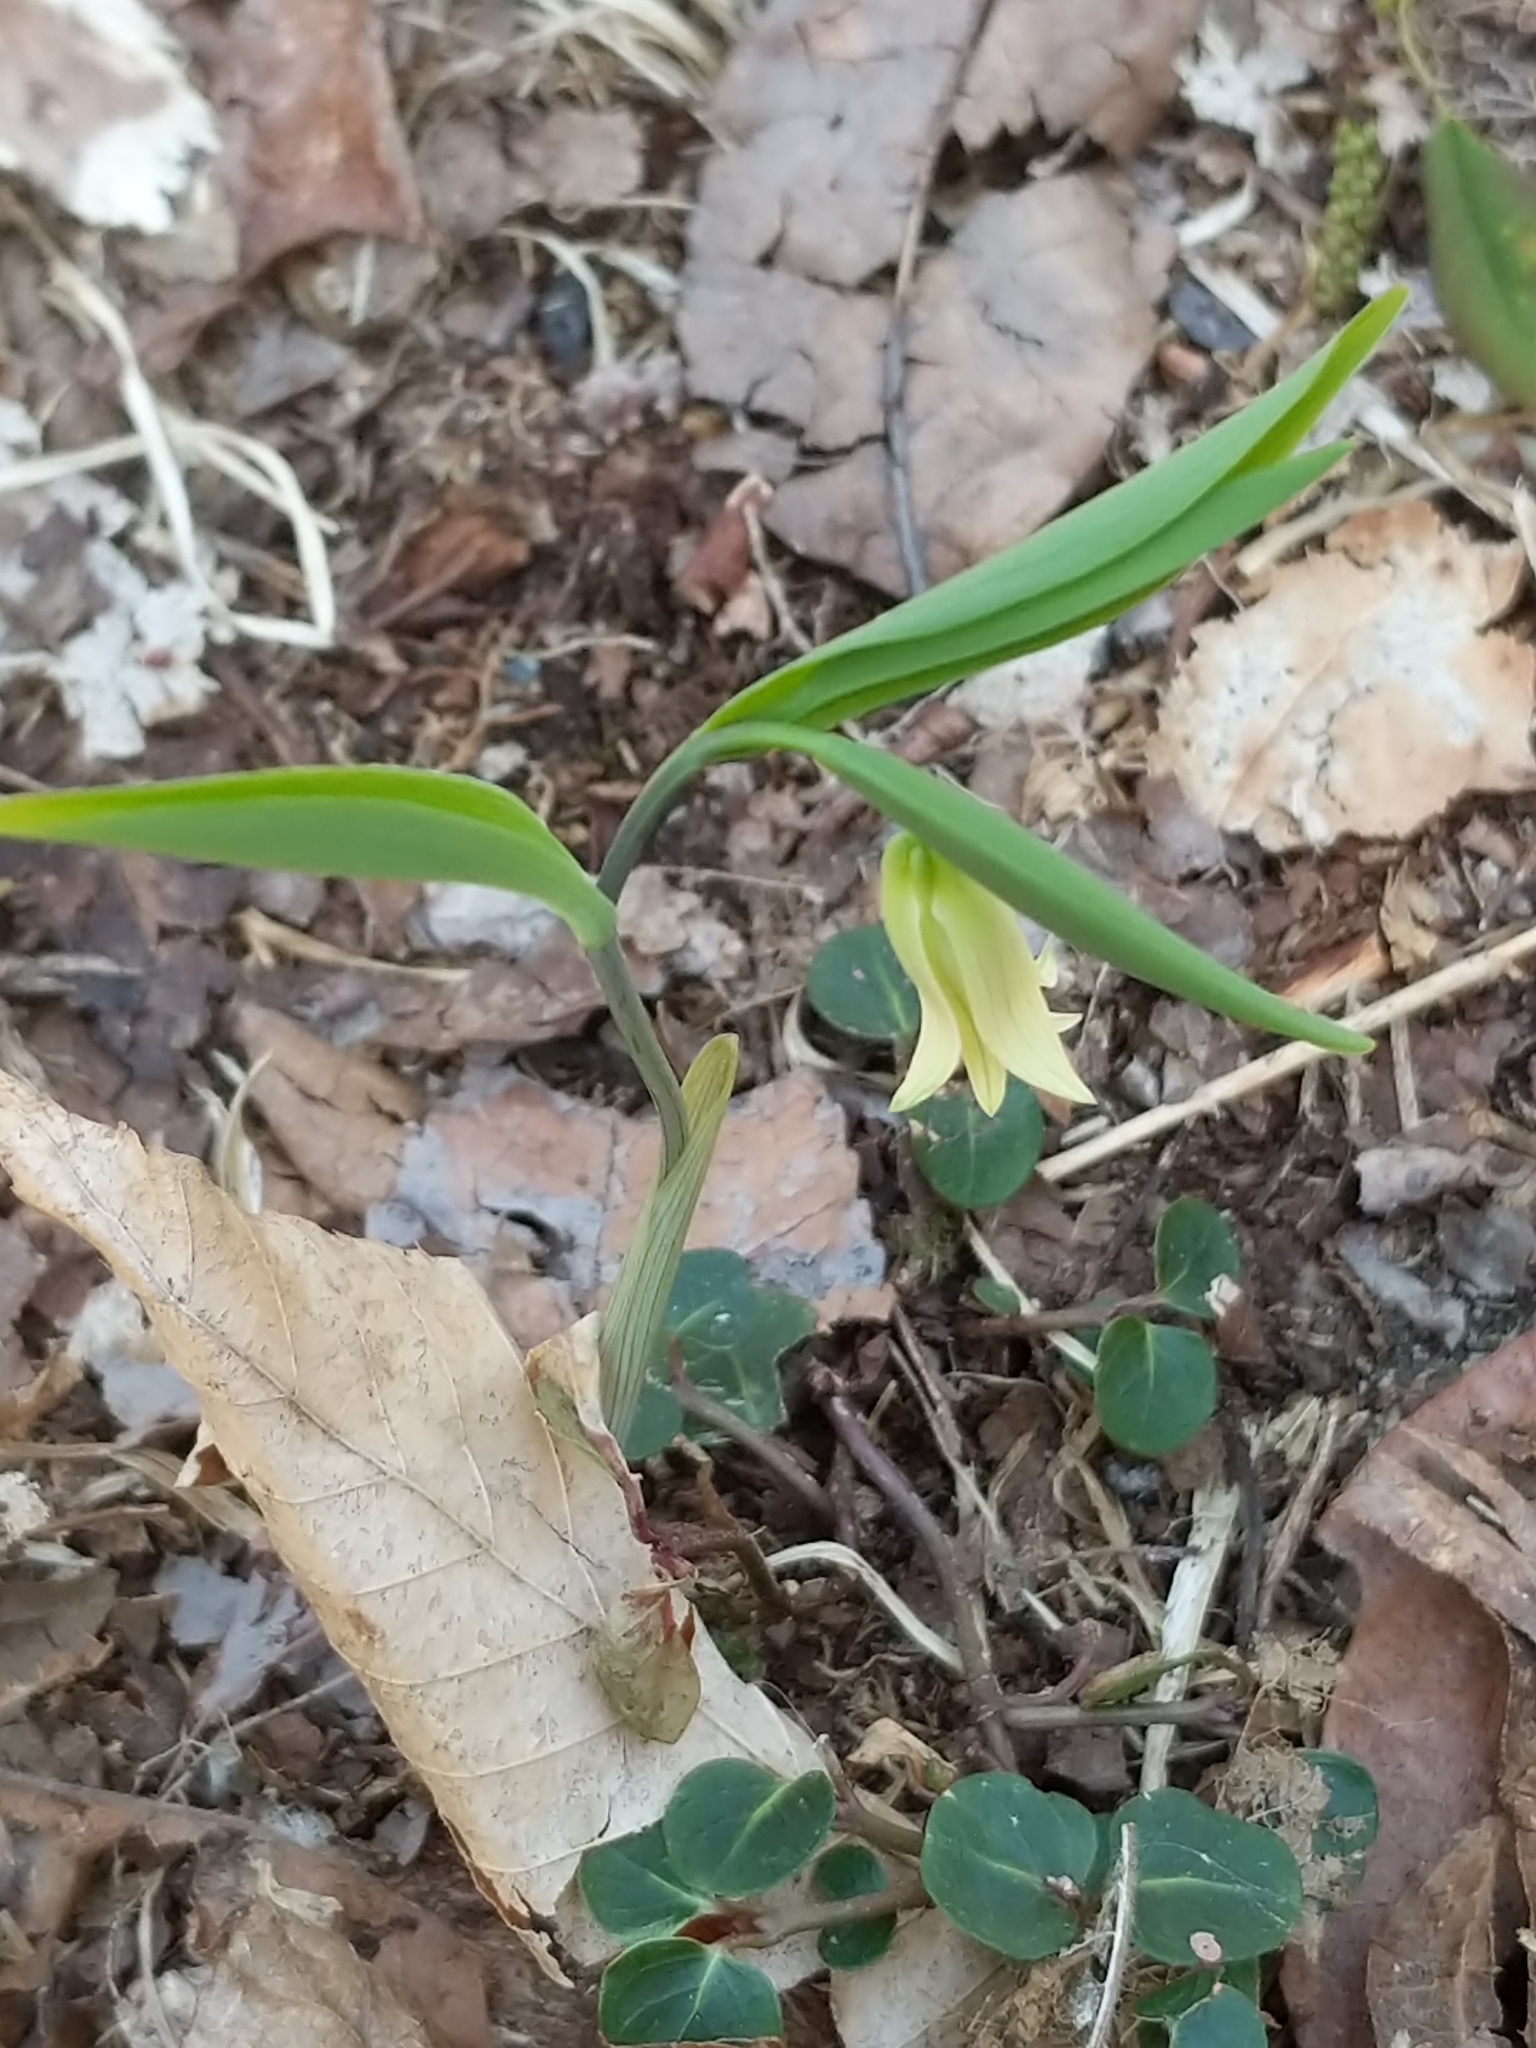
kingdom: Plantae
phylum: Tracheophyta
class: Liliopsida
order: Liliales
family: Colchicaceae
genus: Uvularia
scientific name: Uvularia sessilifolia
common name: Straw-lily
